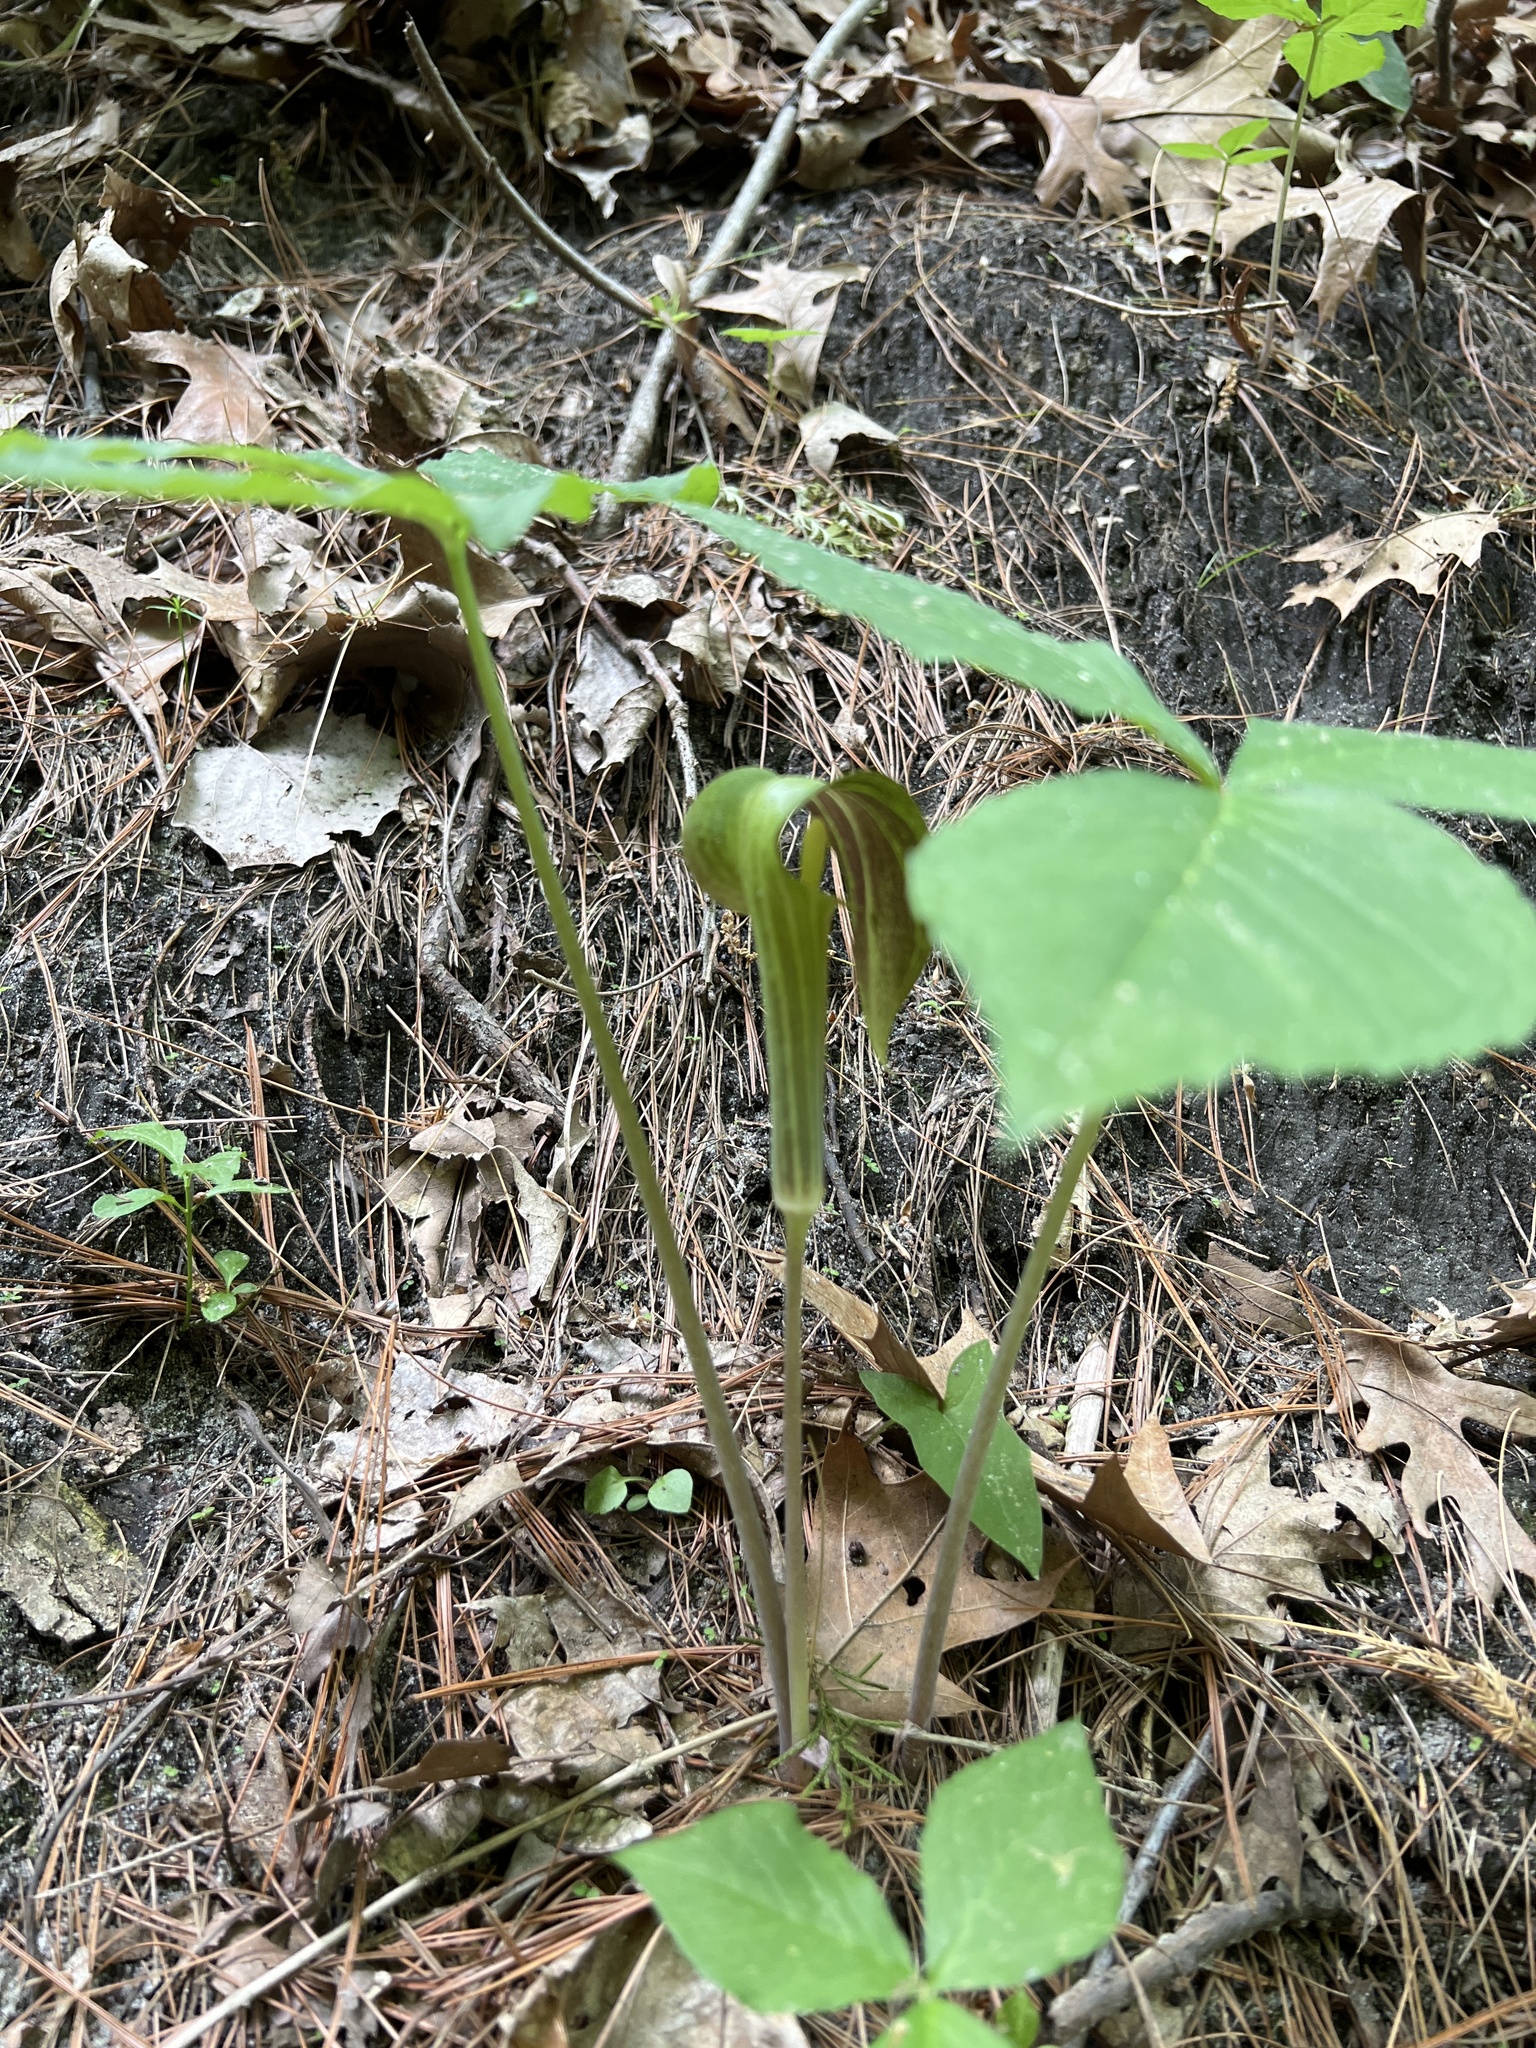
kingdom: Plantae
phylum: Tracheophyta
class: Liliopsida
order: Alismatales
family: Araceae
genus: Arisaema
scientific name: Arisaema triphyllum
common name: Jack-in-the-pulpit
